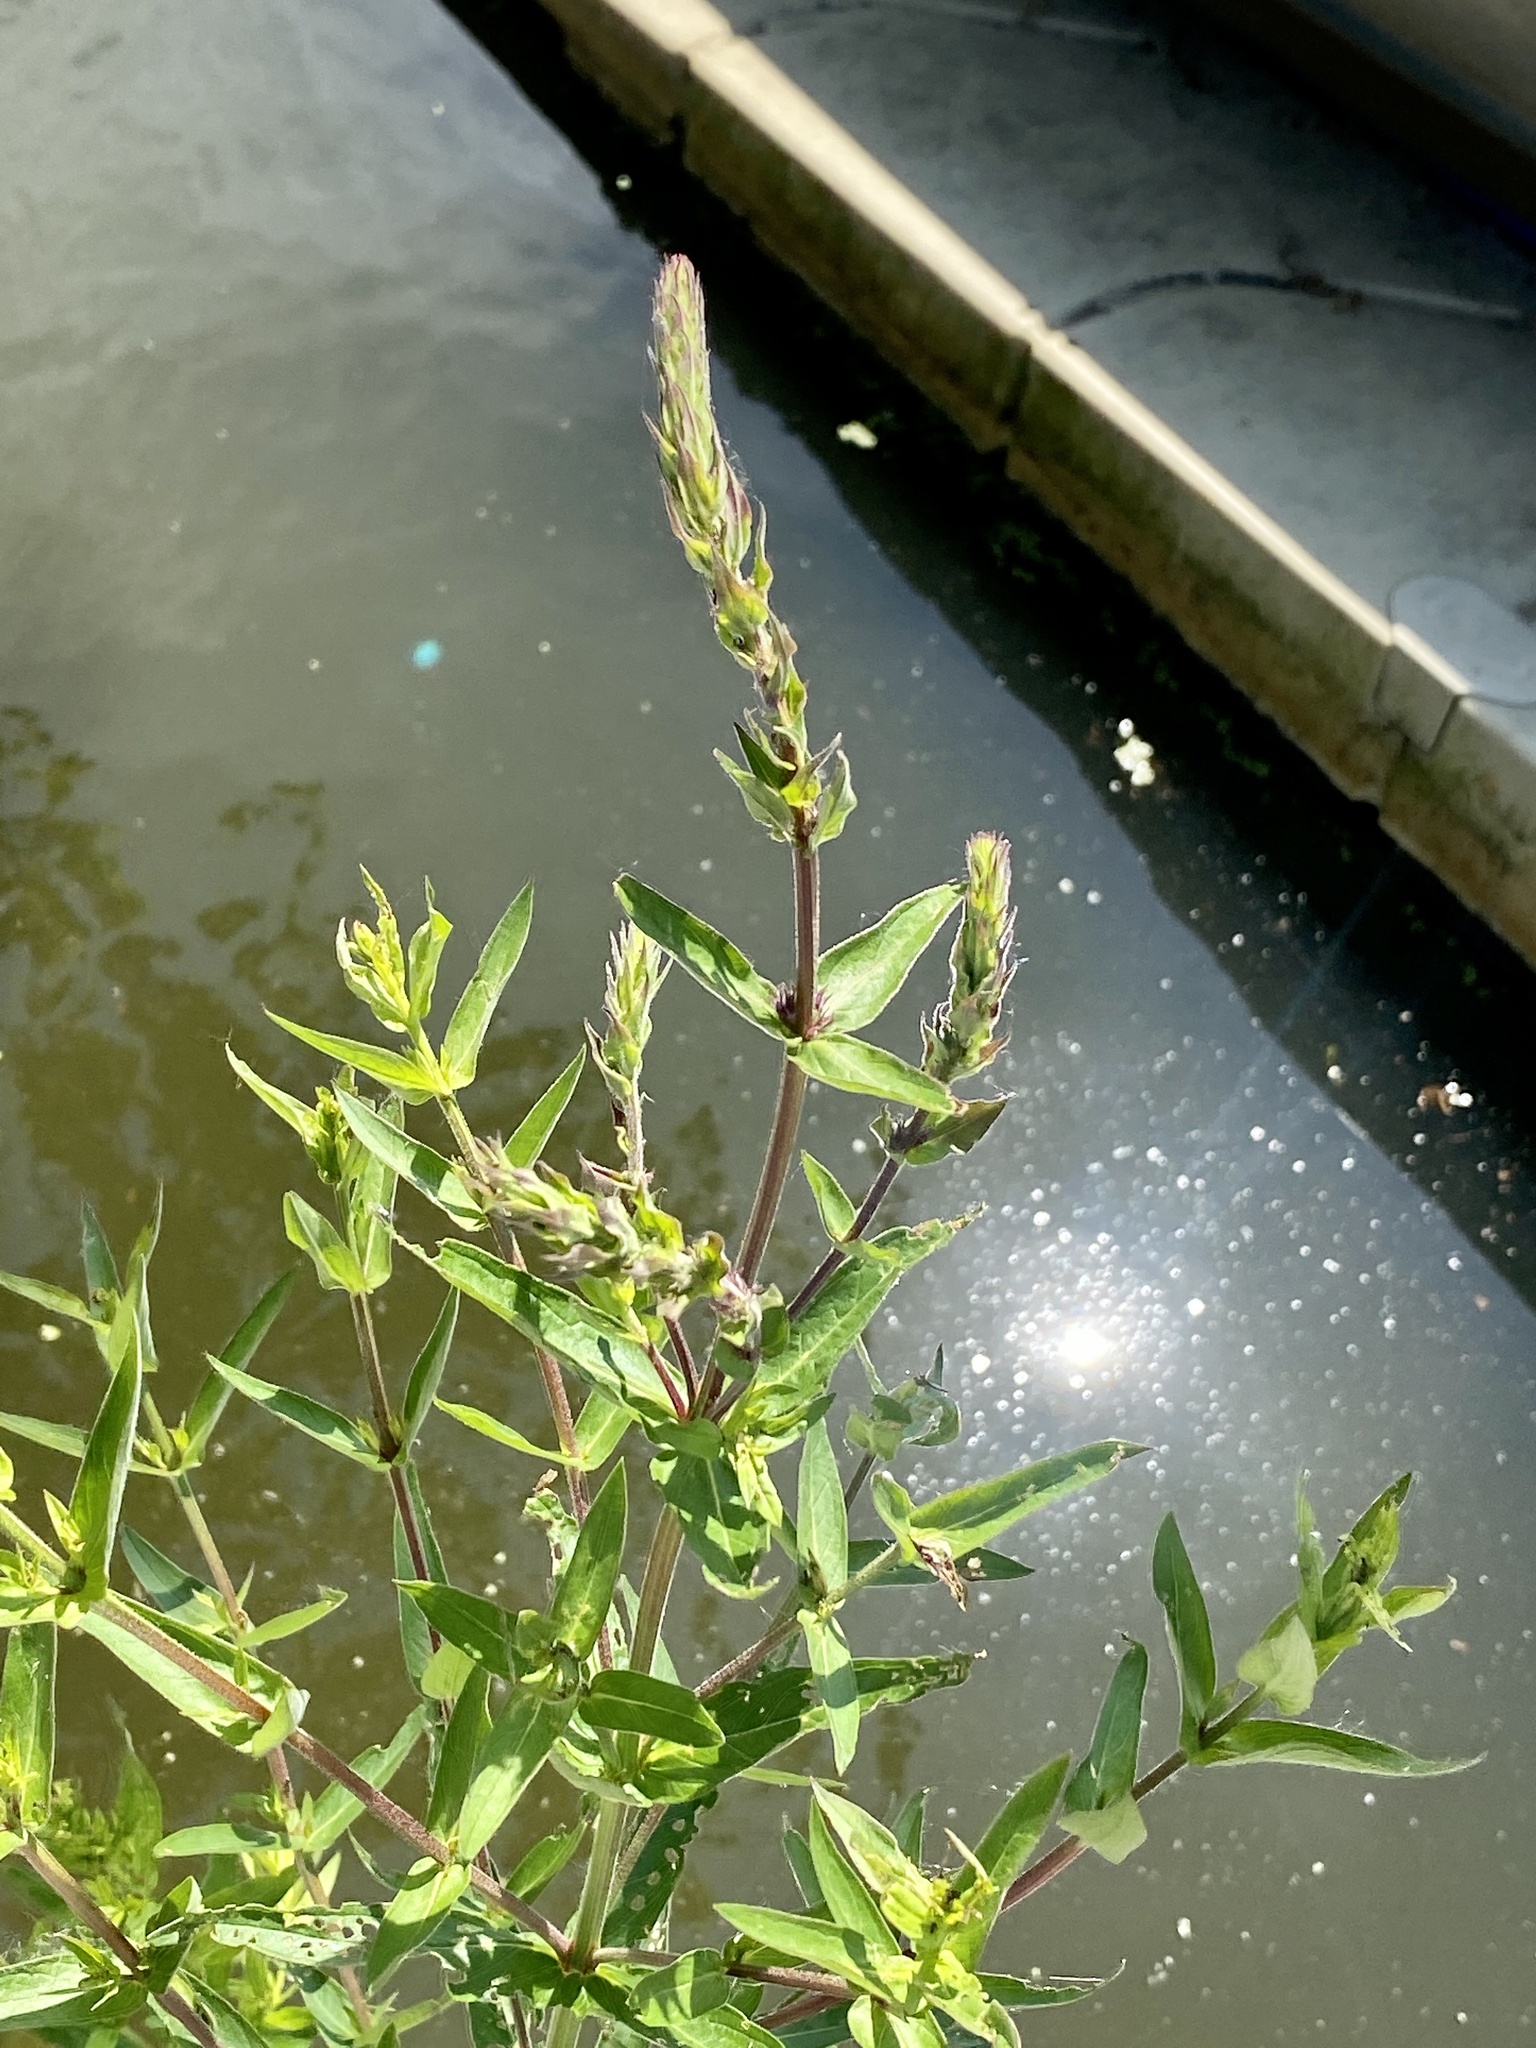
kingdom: Plantae
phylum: Tracheophyta
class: Magnoliopsida
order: Myrtales
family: Lythraceae
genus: Lythrum
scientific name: Lythrum salicaria
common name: Purple loosestrife
